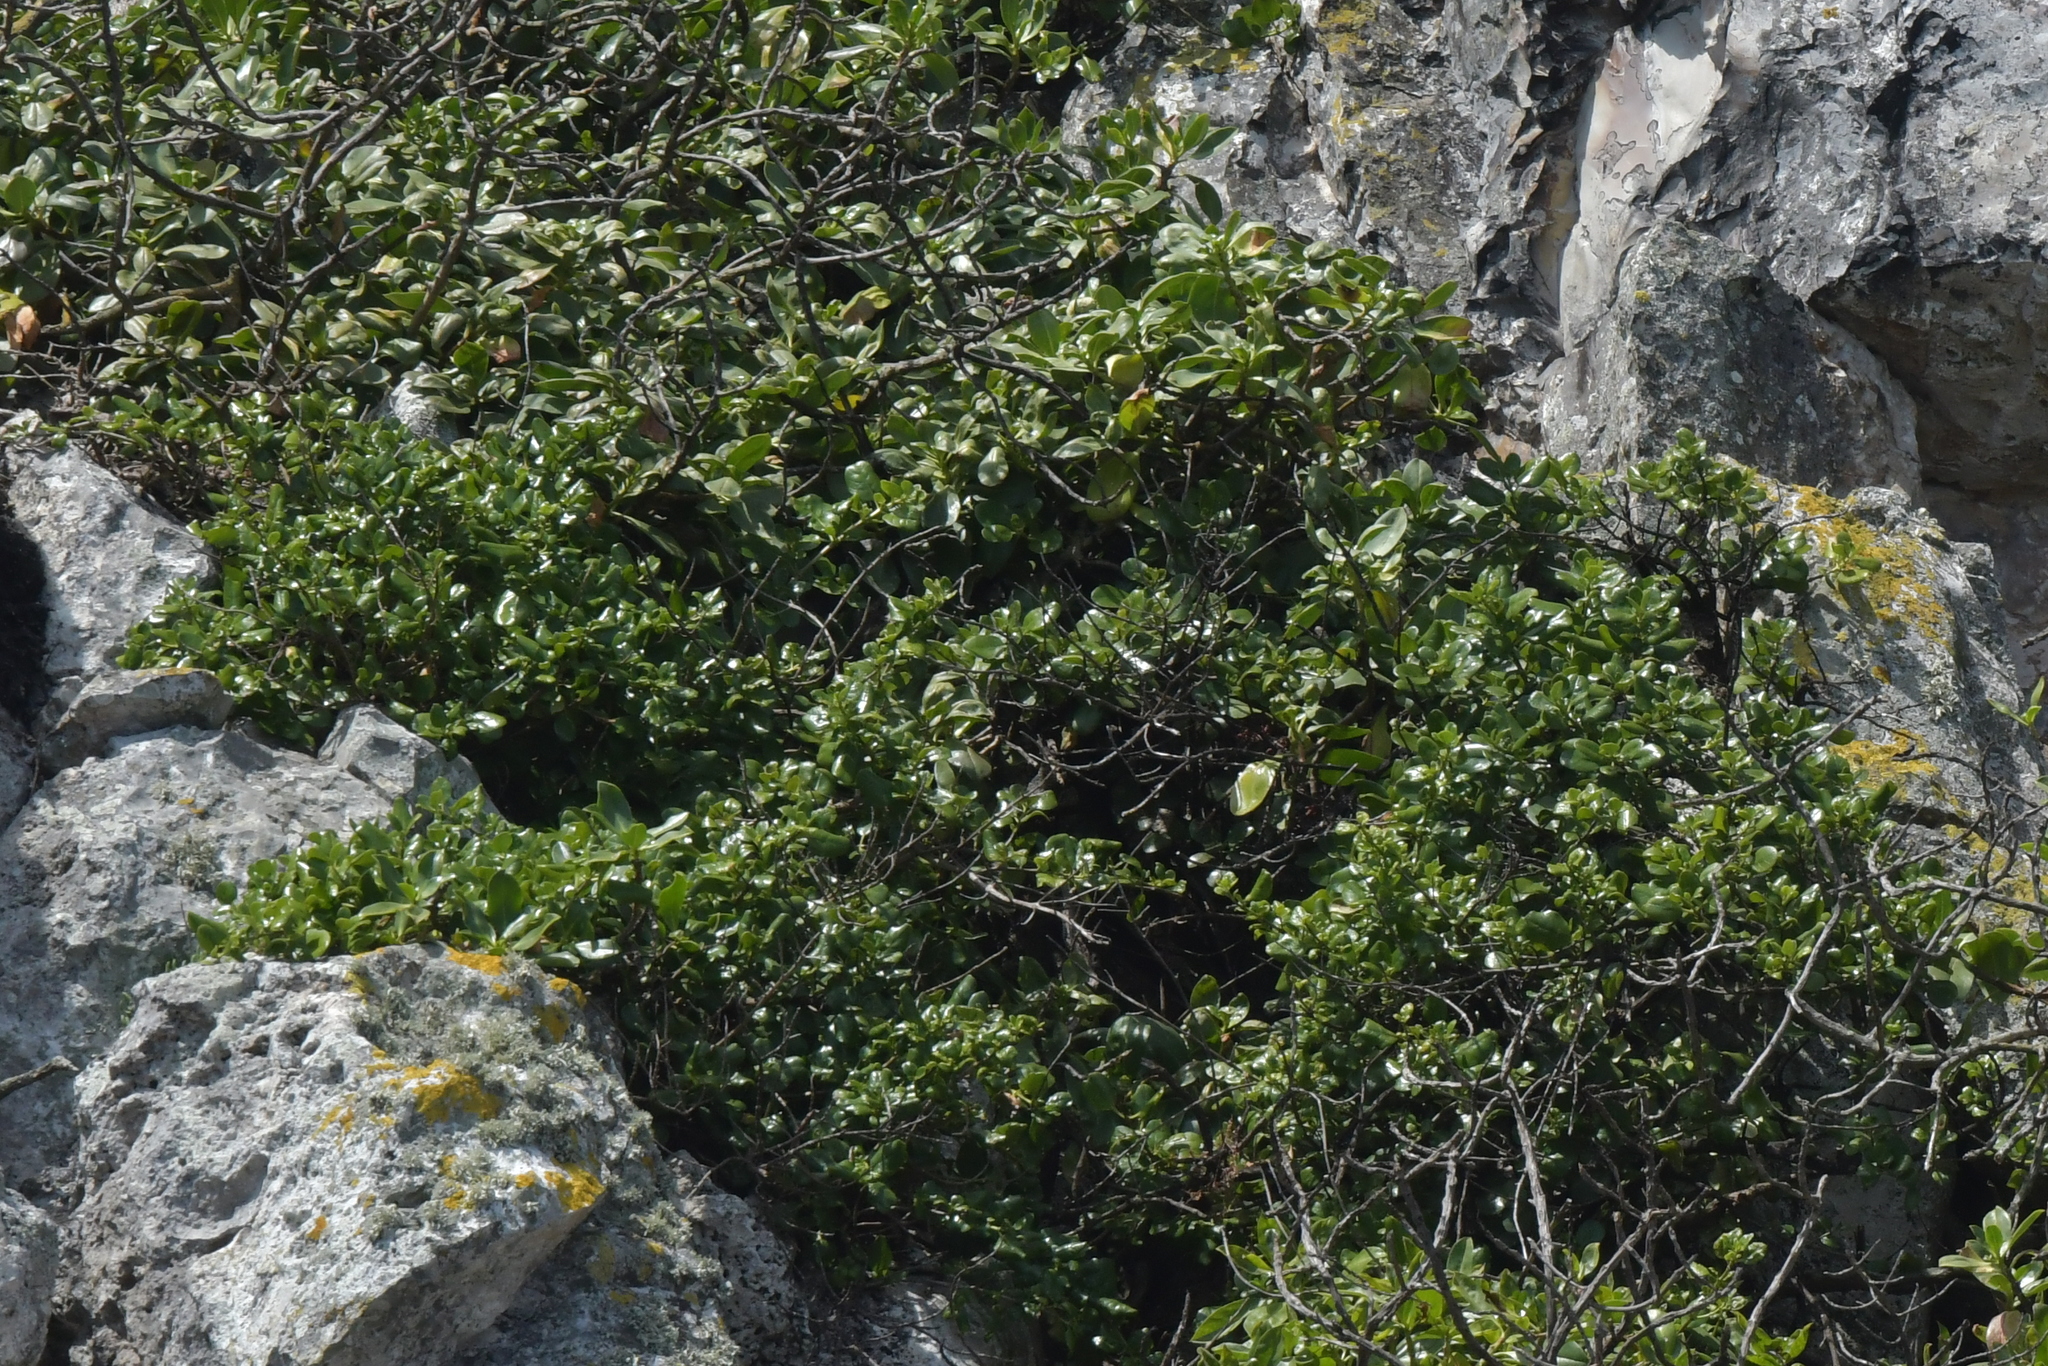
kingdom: Plantae
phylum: Tracheophyta
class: Magnoliopsida
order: Gentianales
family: Rubiaceae
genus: Coprosma
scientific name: Coprosma repens
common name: Tree bedstraw
